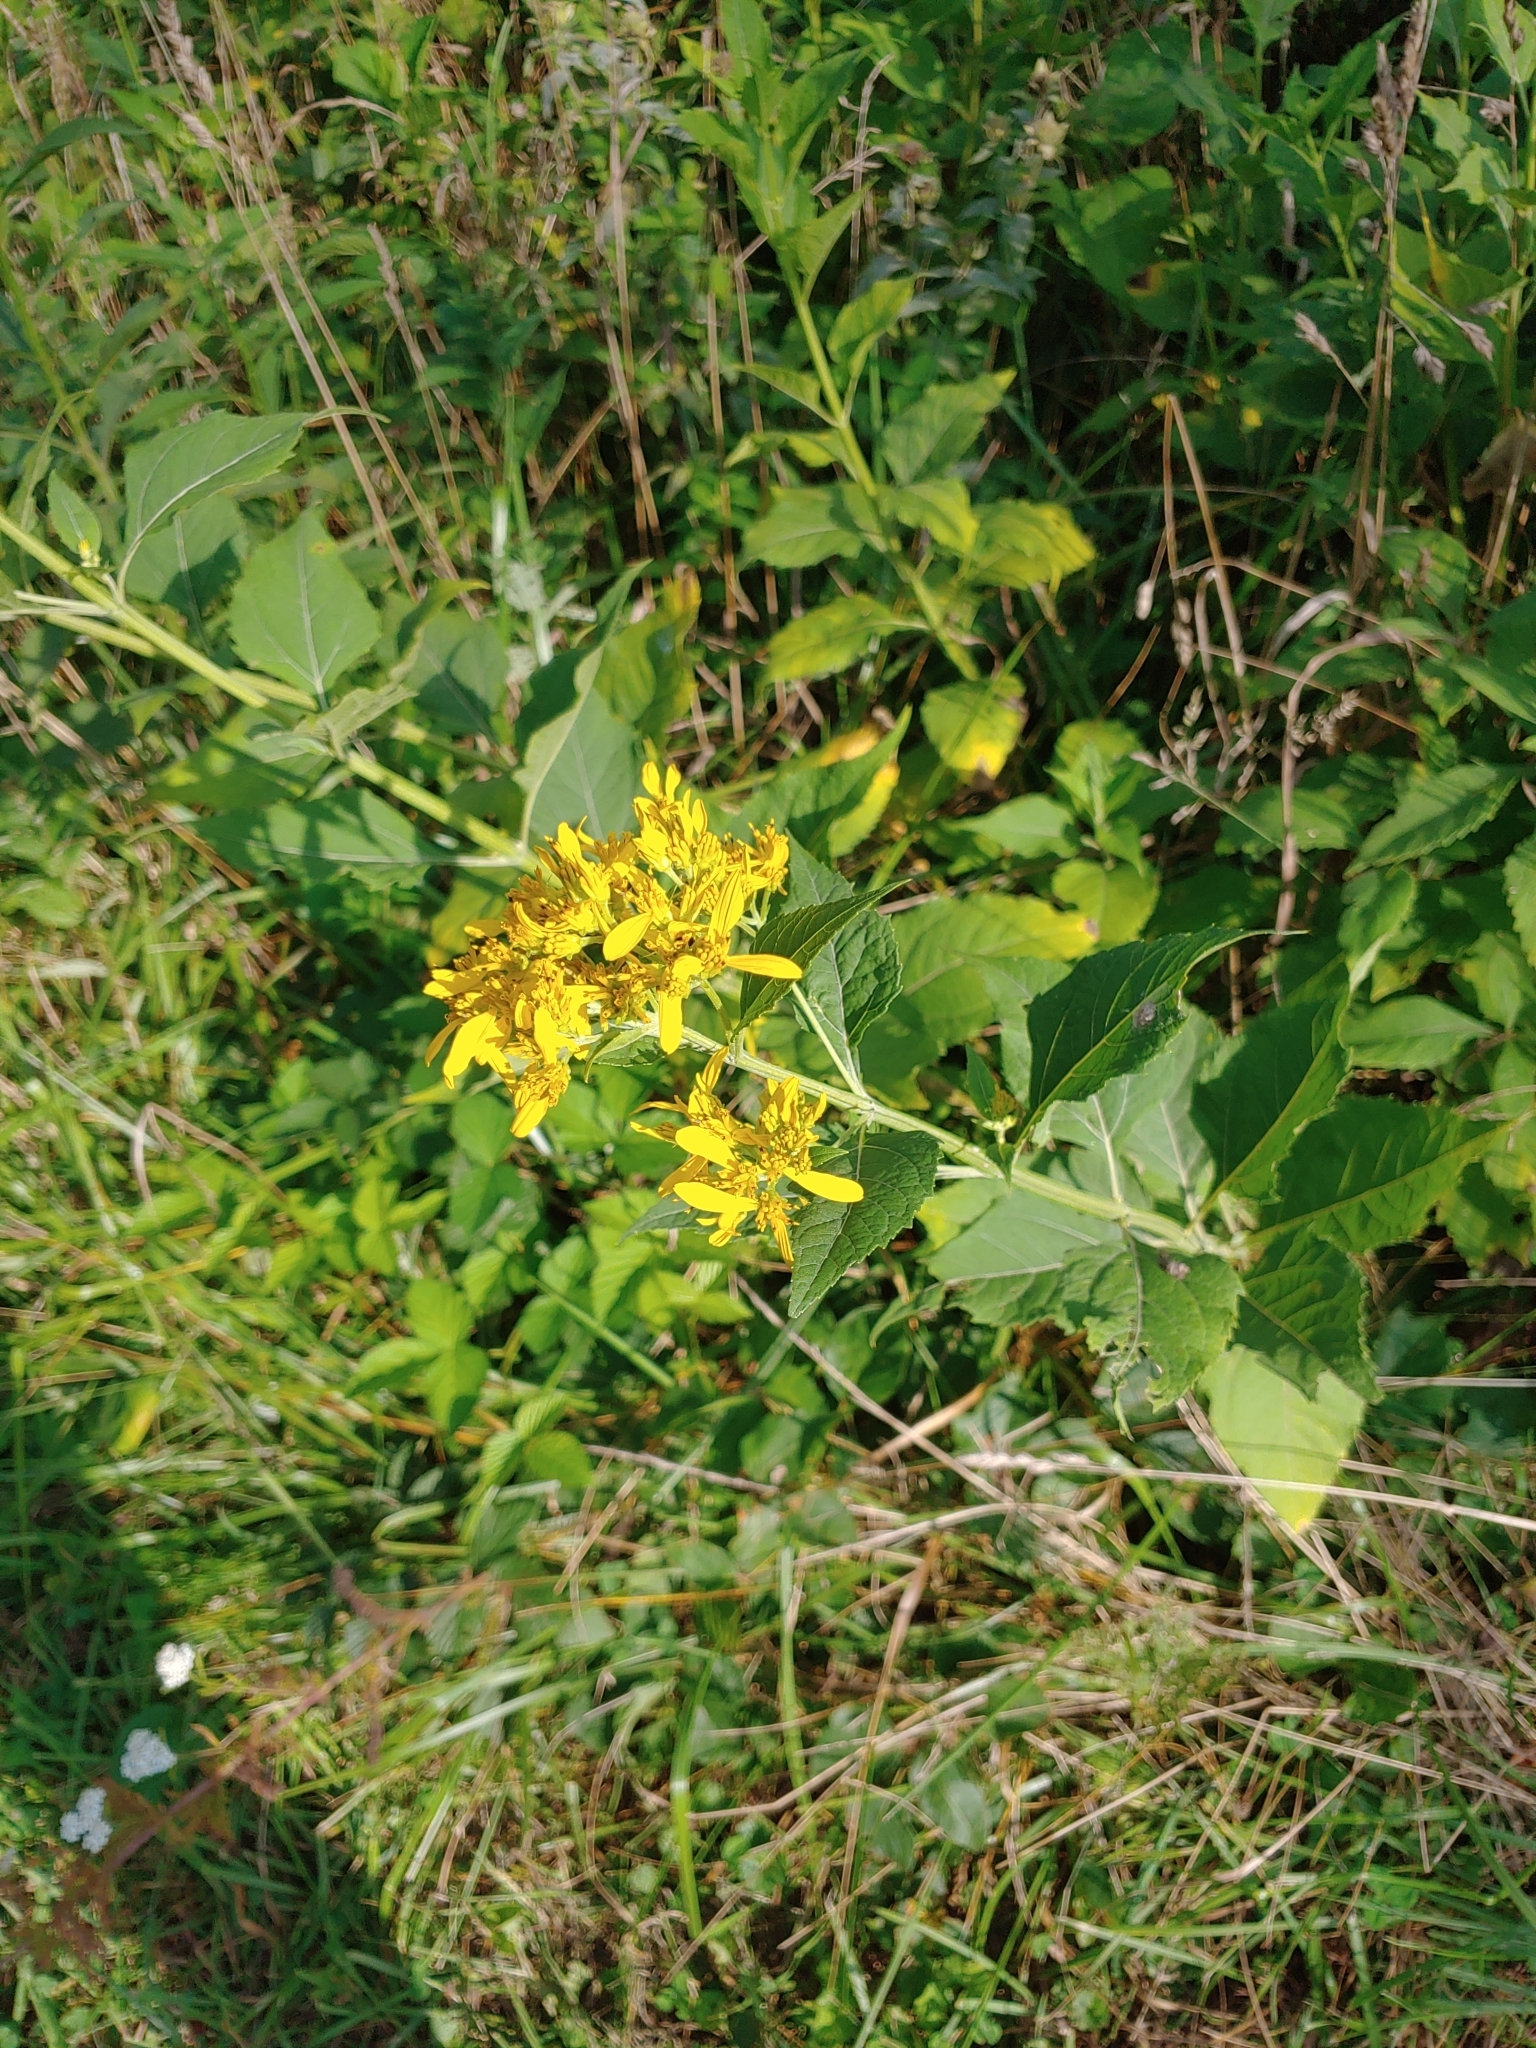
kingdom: Plantae
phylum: Tracheophyta
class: Magnoliopsida
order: Asterales
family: Asteraceae
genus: Verbesina
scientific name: Verbesina occidentalis
